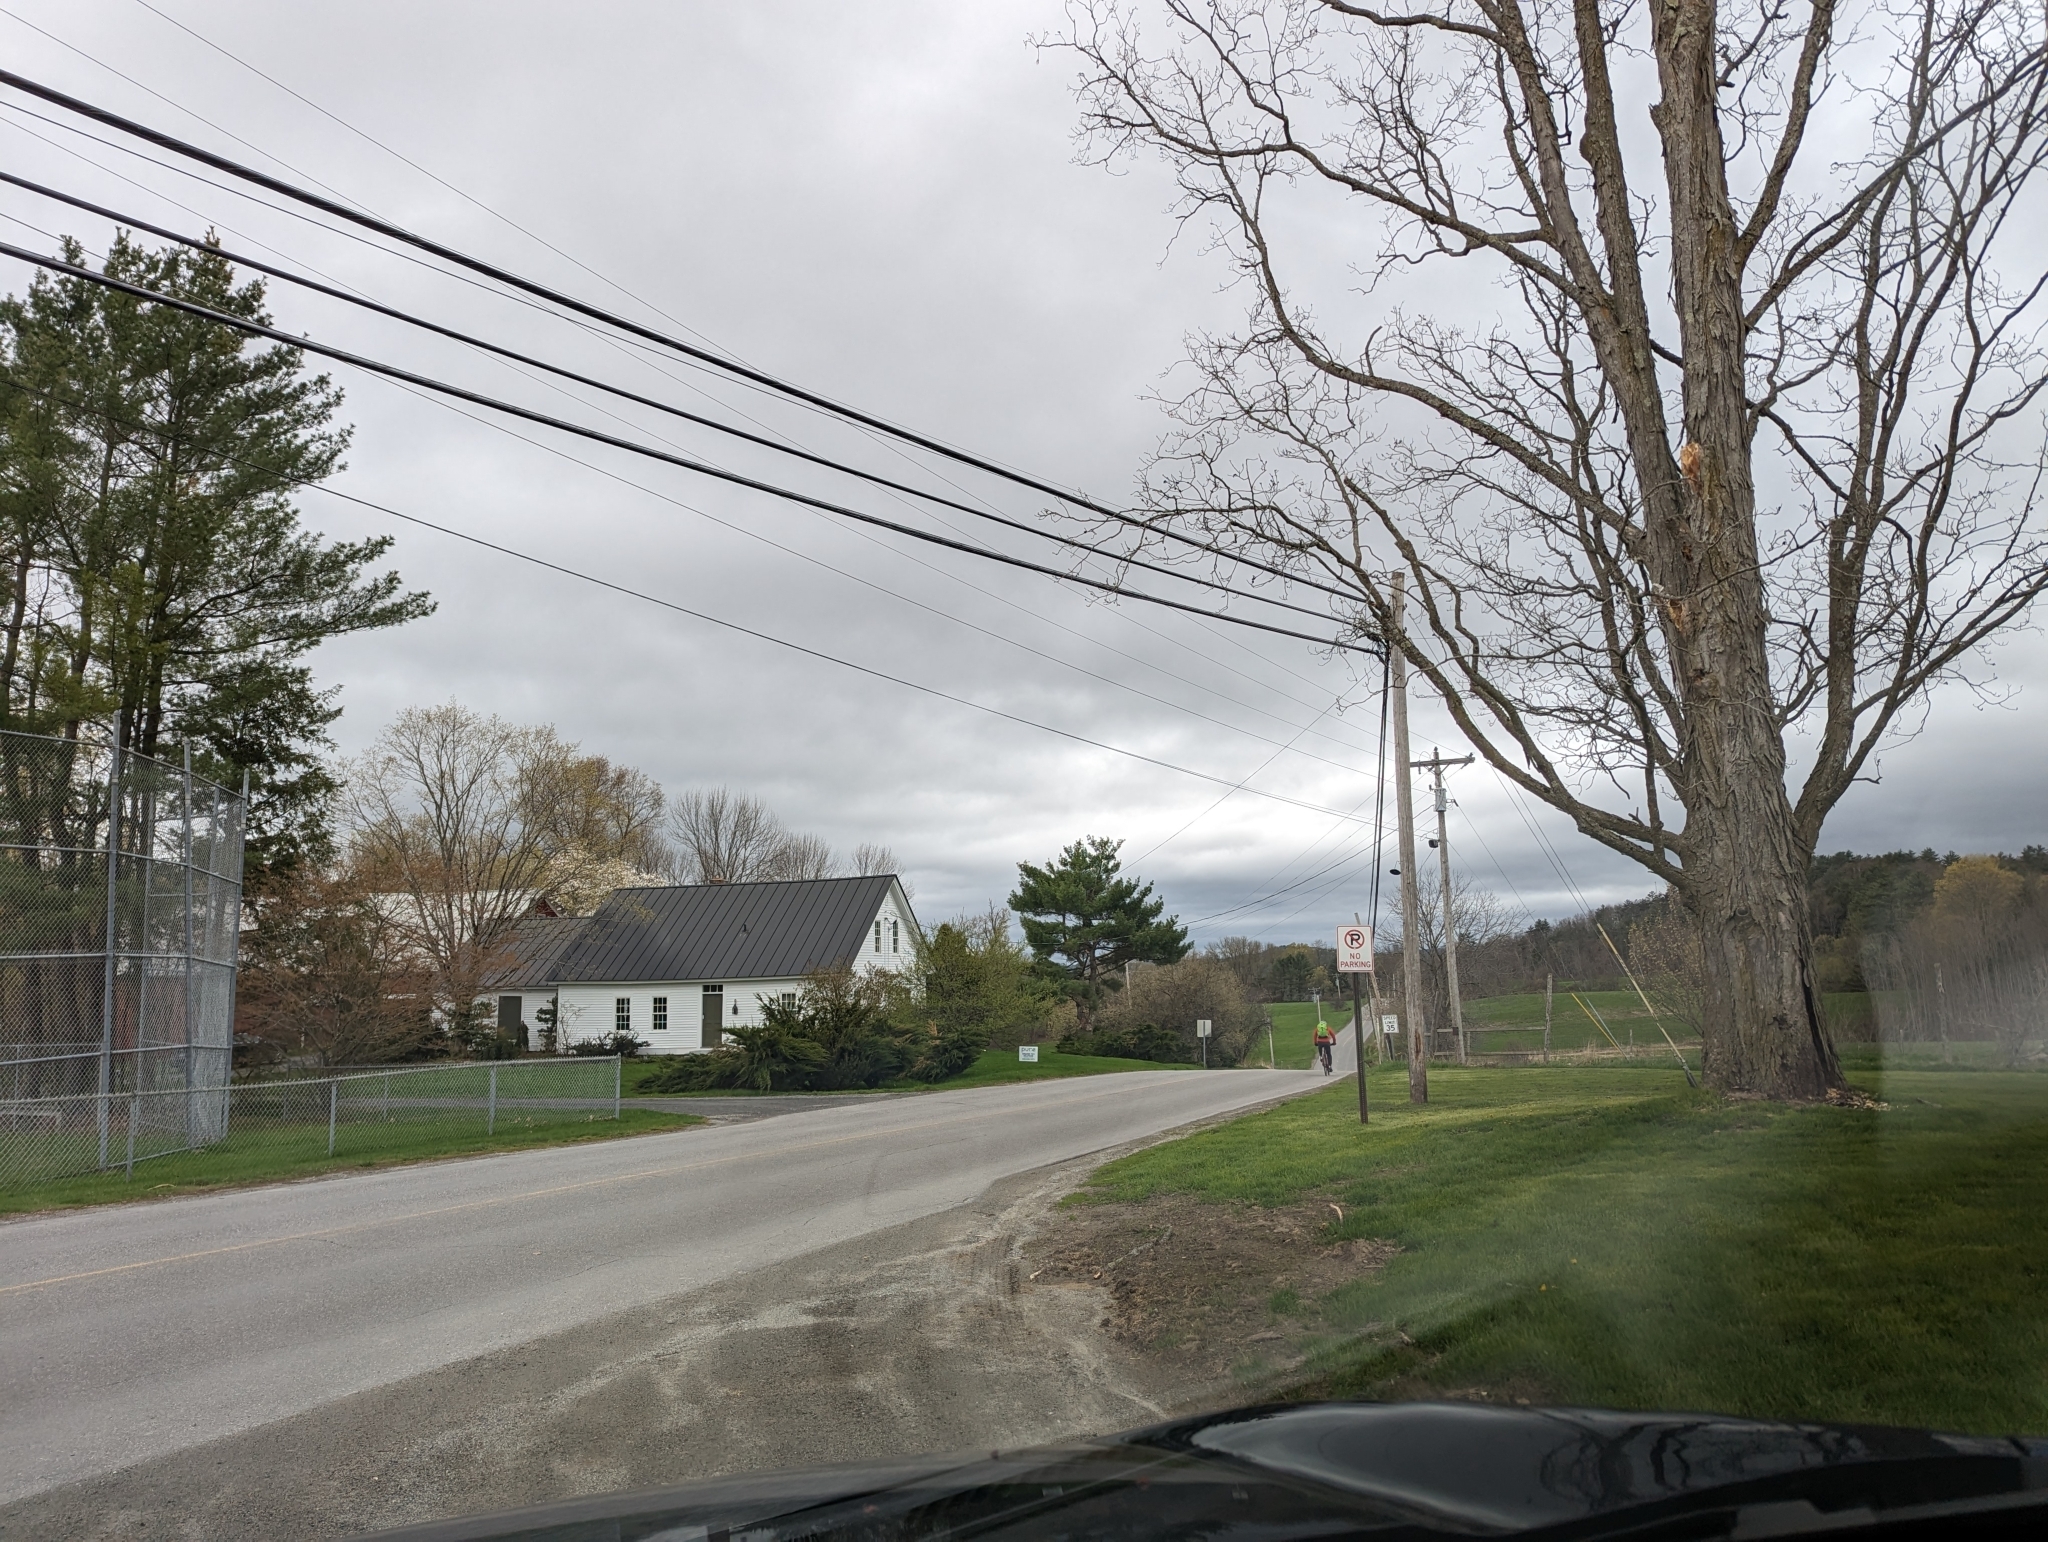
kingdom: Plantae
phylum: Tracheophyta
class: Pinopsida
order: Pinales
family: Pinaceae
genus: Pinus
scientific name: Pinus strobus
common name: Weymouth pine
